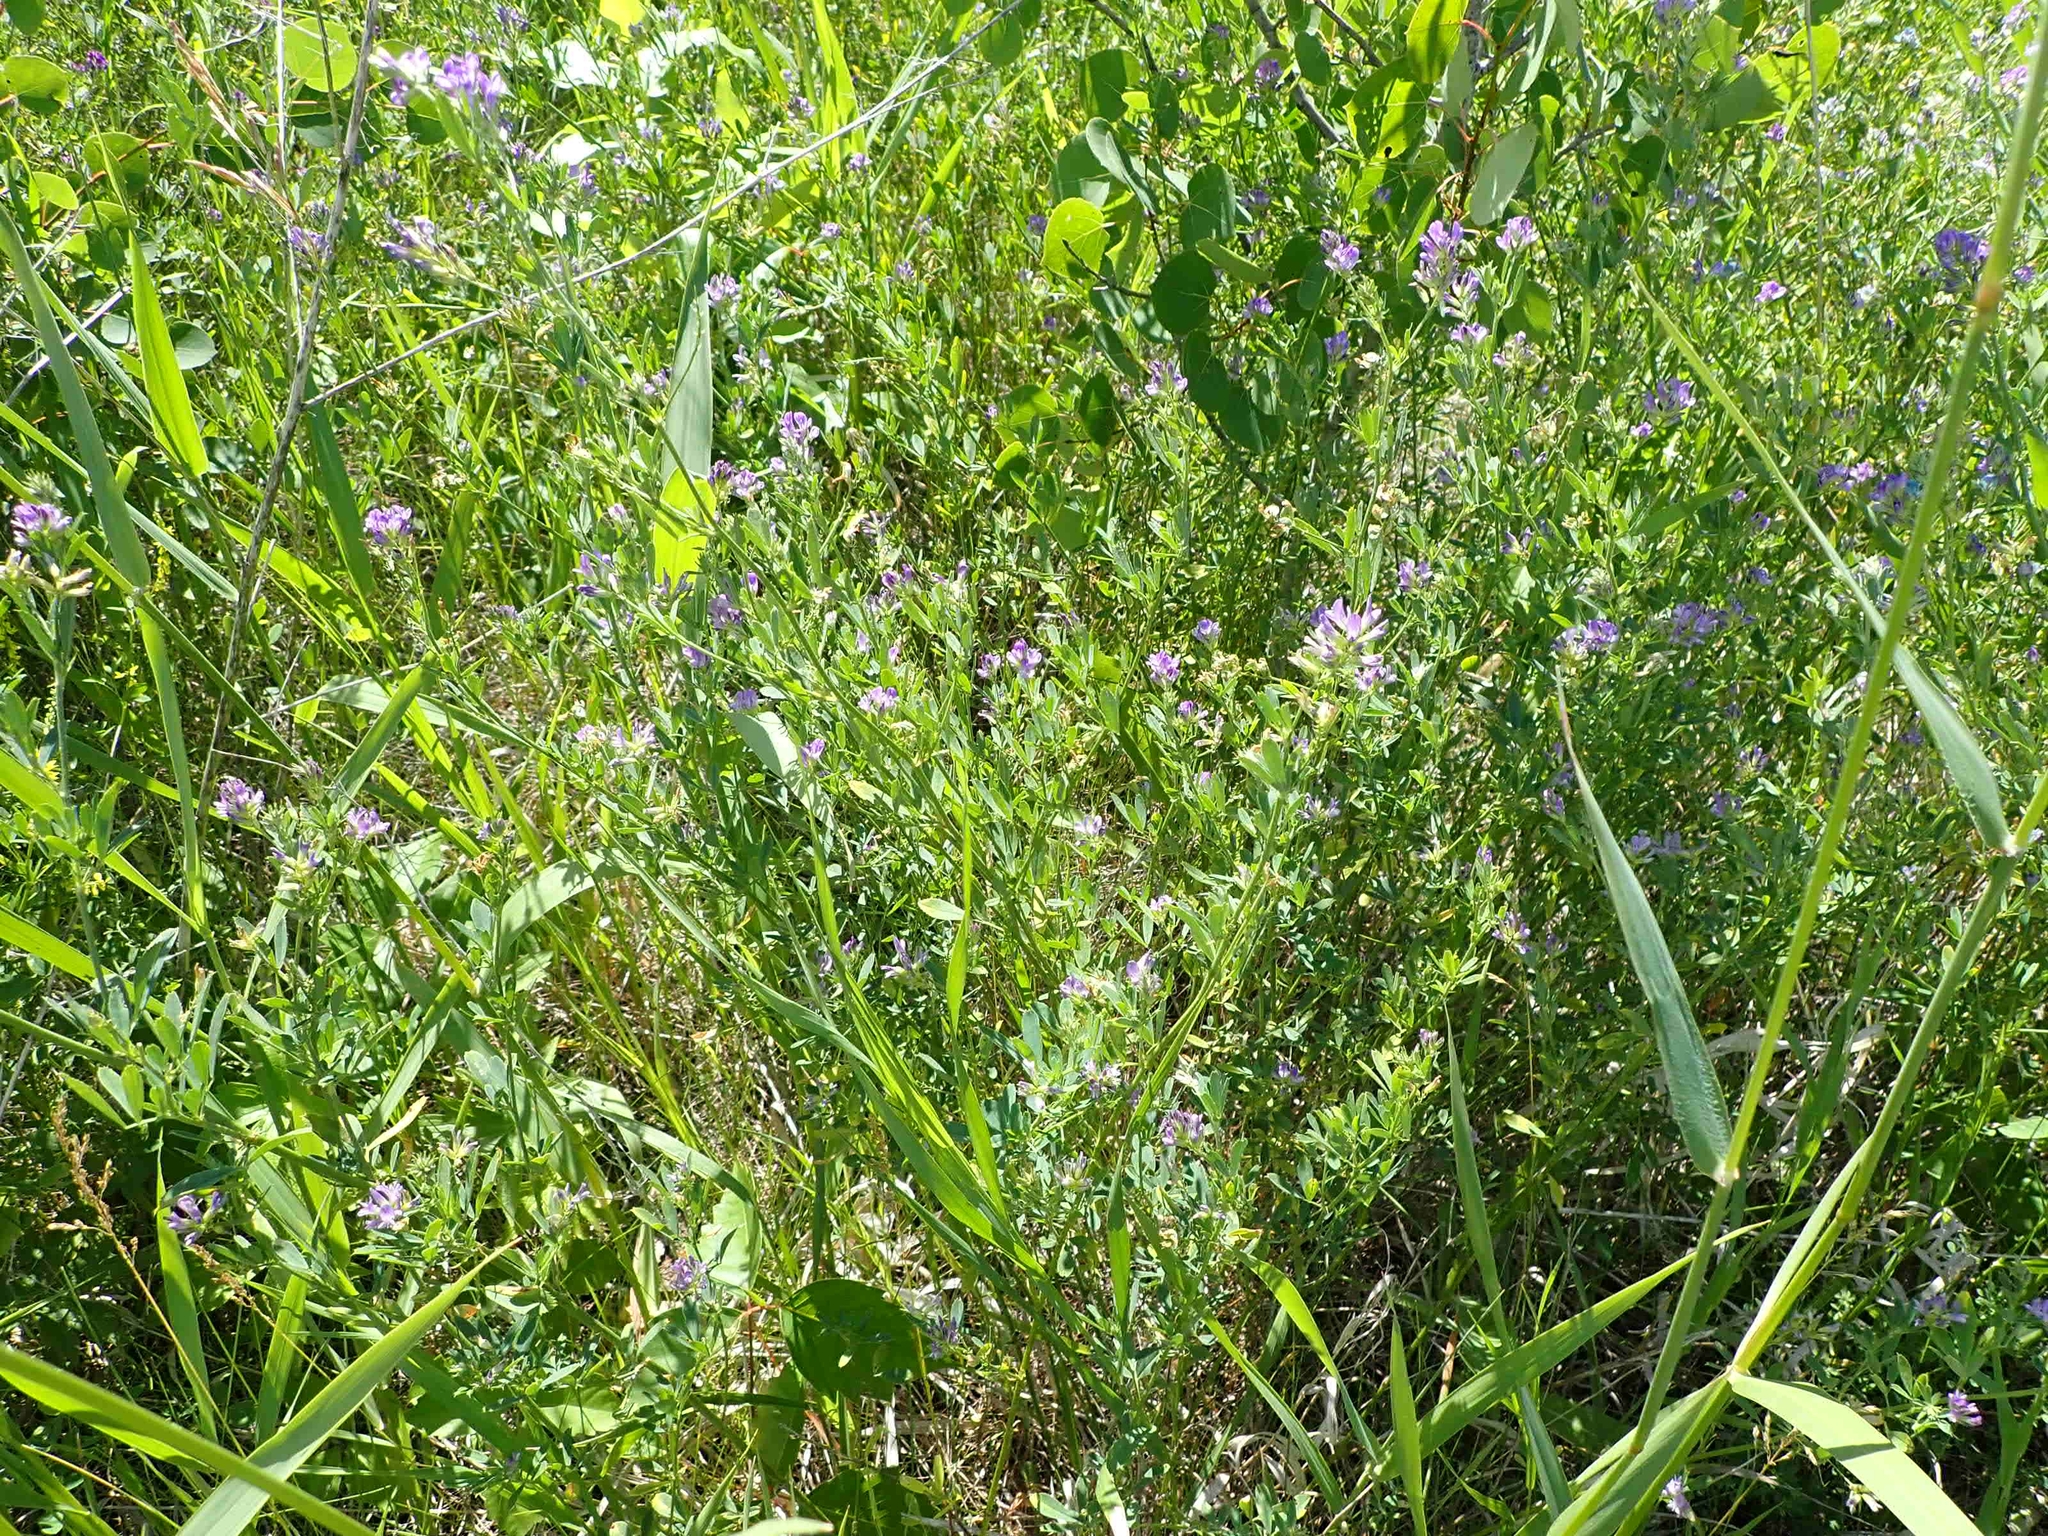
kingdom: Plantae
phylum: Tracheophyta
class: Magnoliopsida
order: Fabales
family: Fabaceae
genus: Medicago
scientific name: Medicago sativa
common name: Alfalfa
